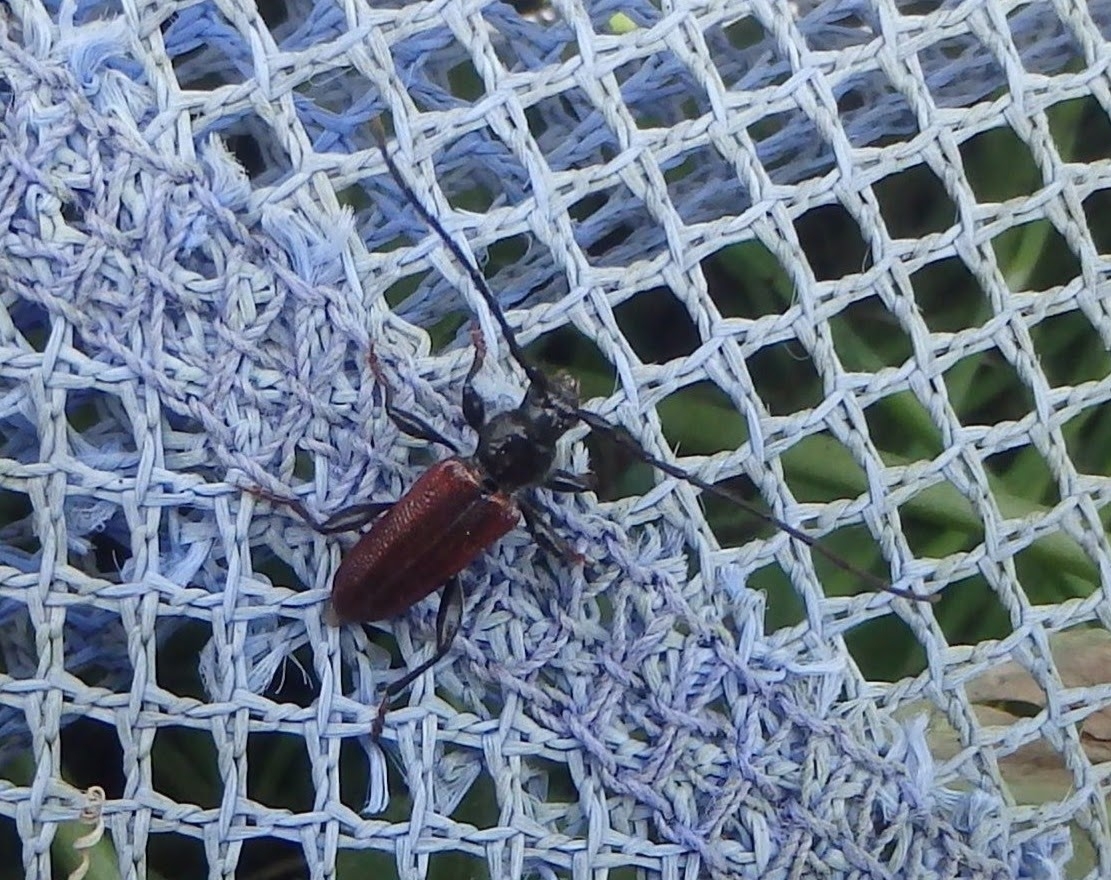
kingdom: Animalia
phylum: Arthropoda
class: Insecta
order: Coleoptera
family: Cerambycidae
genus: Callidiellum
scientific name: Callidiellum rufipennis
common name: Longhorn beetle
